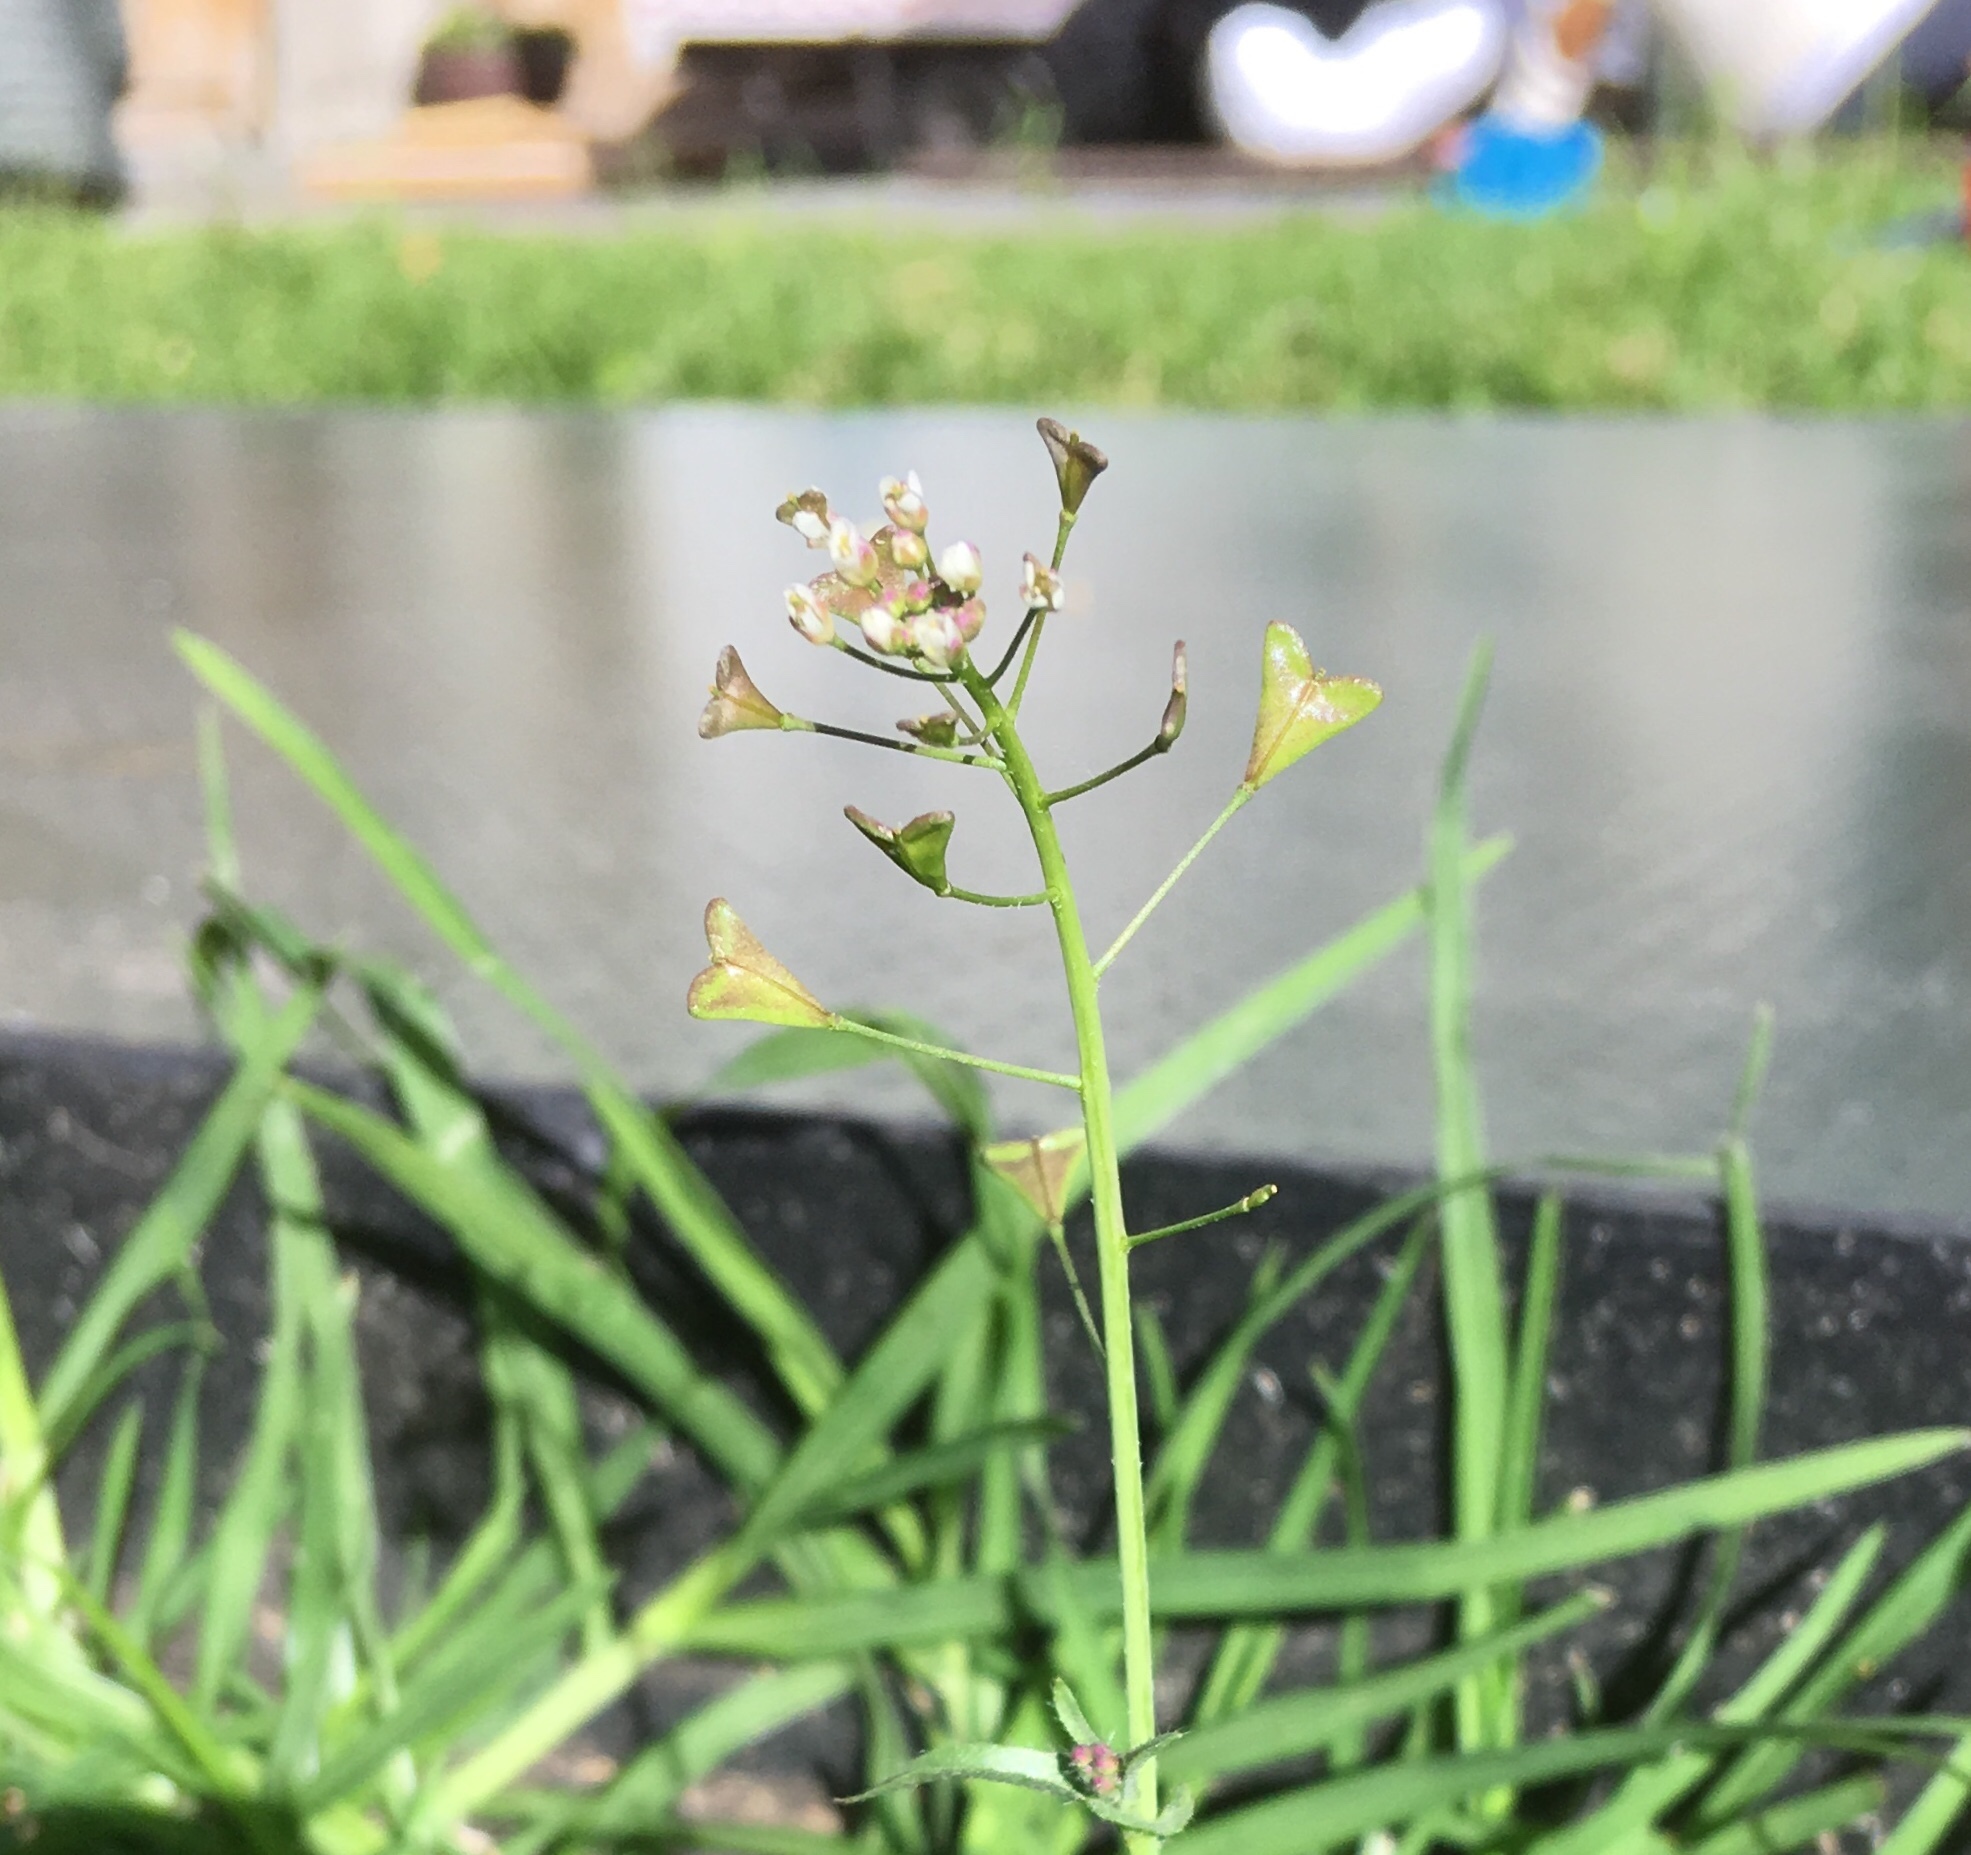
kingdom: Plantae
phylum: Tracheophyta
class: Magnoliopsida
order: Brassicales
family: Brassicaceae
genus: Capsella
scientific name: Capsella bursa-pastoris
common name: Shepherd's purse
